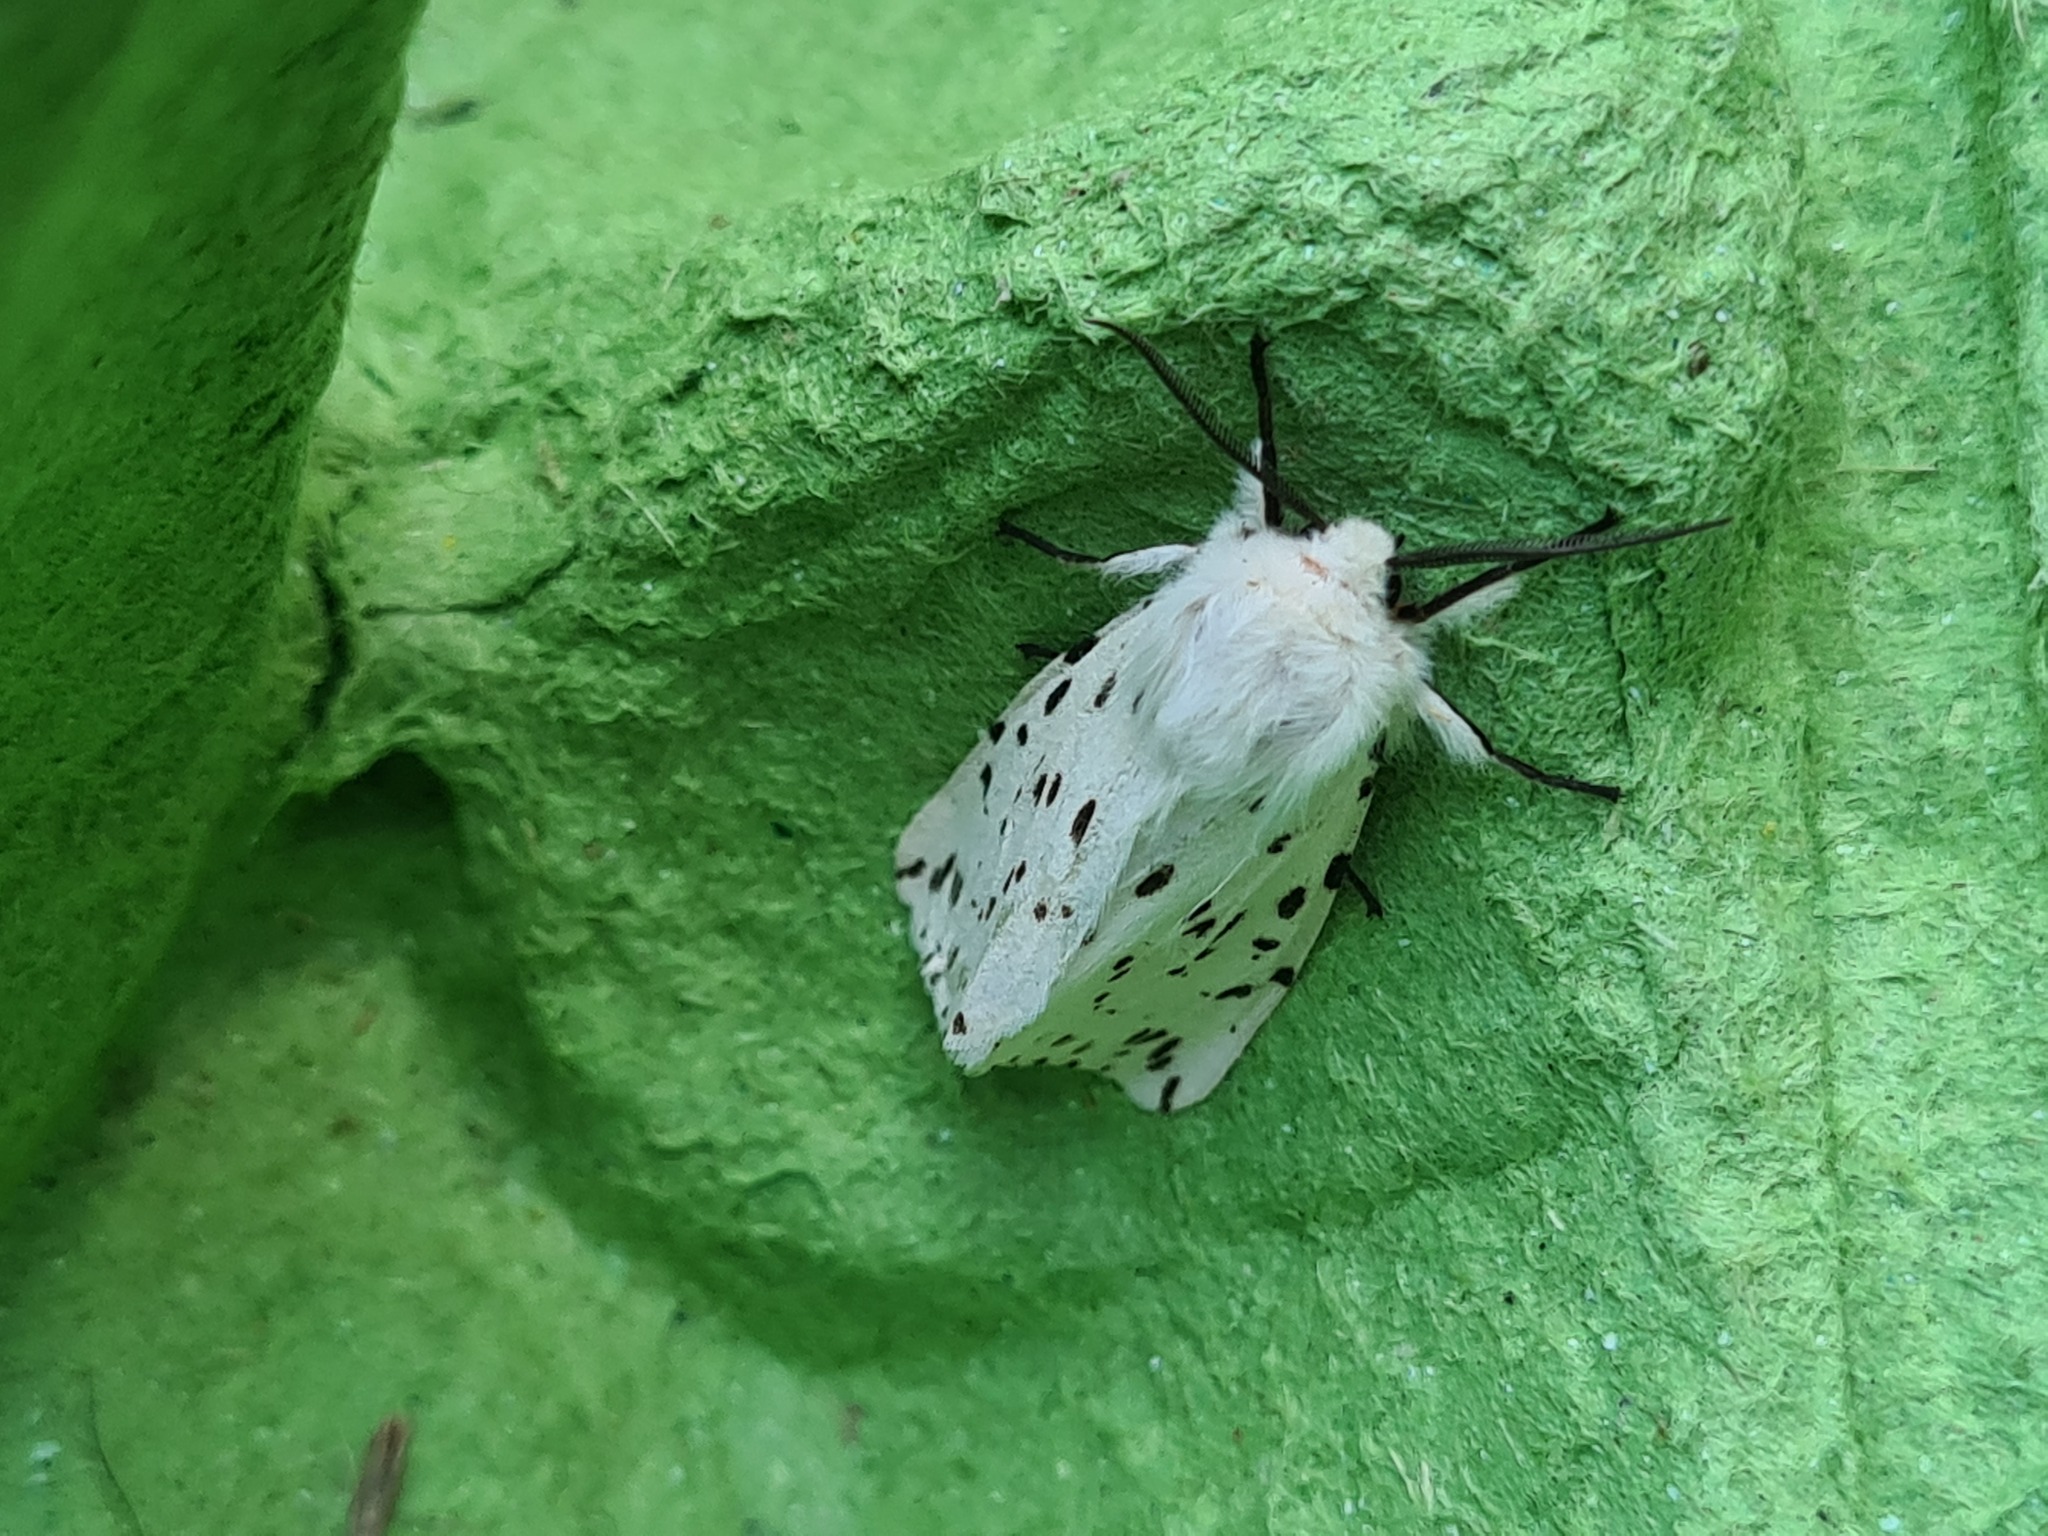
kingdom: Animalia
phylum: Arthropoda
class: Insecta
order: Lepidoptera
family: Erebidae
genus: Spilosoma
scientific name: Spilosoma lubricipeda
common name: White ermine
